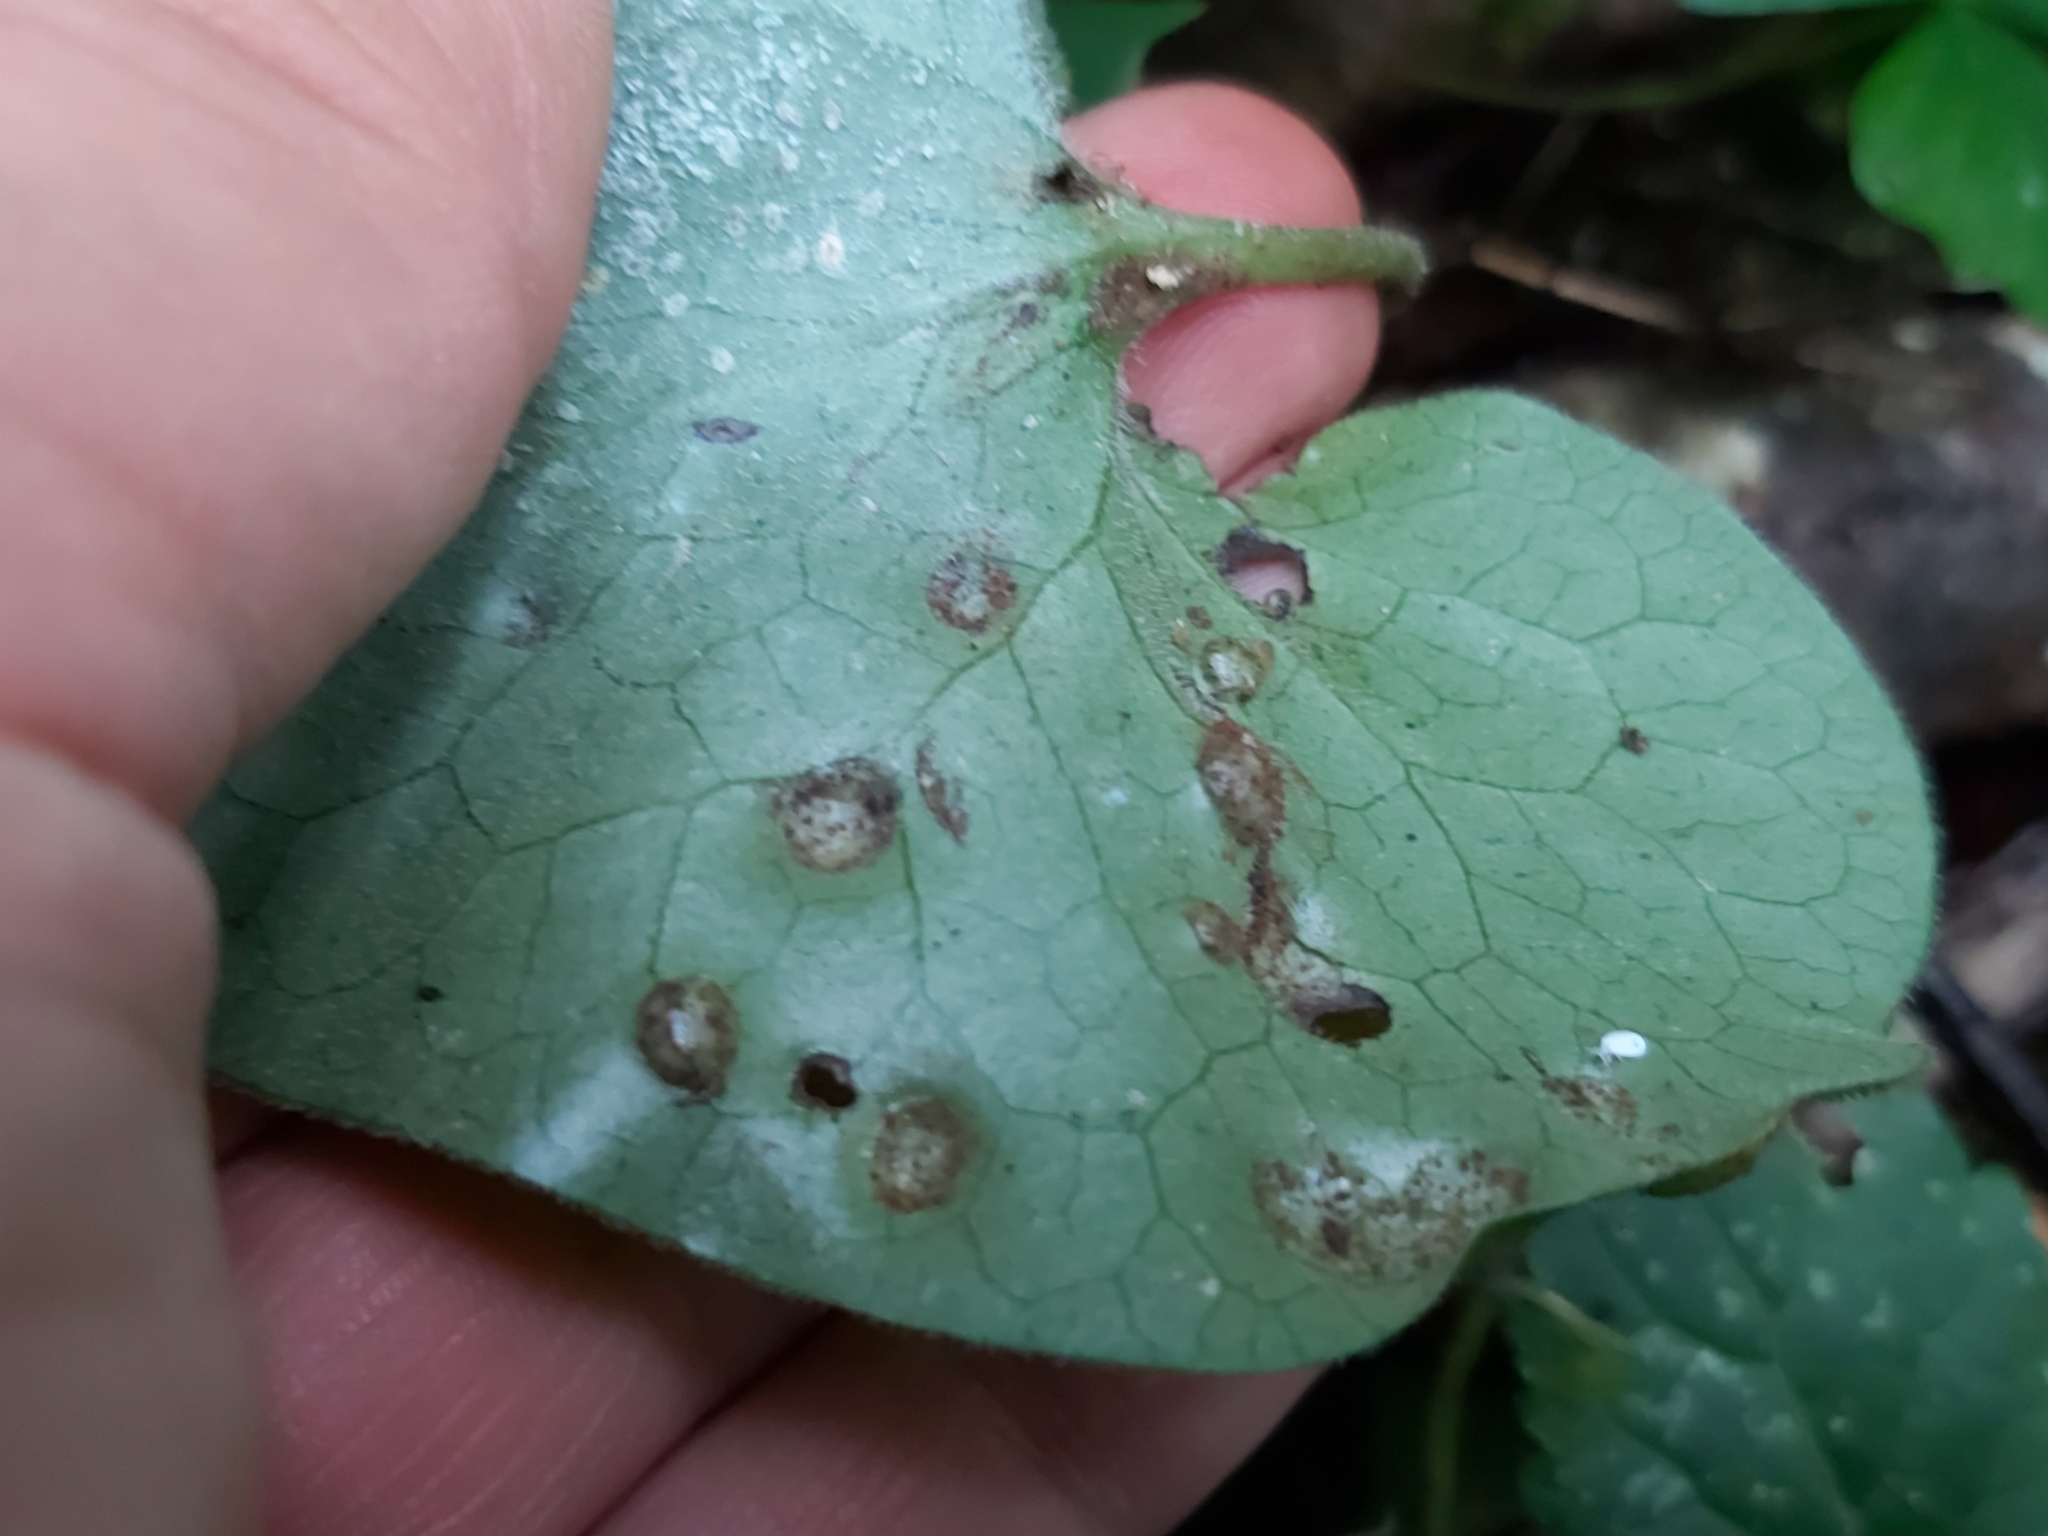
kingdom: Fungi
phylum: Basidiomycota
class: Pucciniomycetes
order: Pucciniales
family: Pucciniaceae
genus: Puccinia
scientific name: Puccinia asarina
